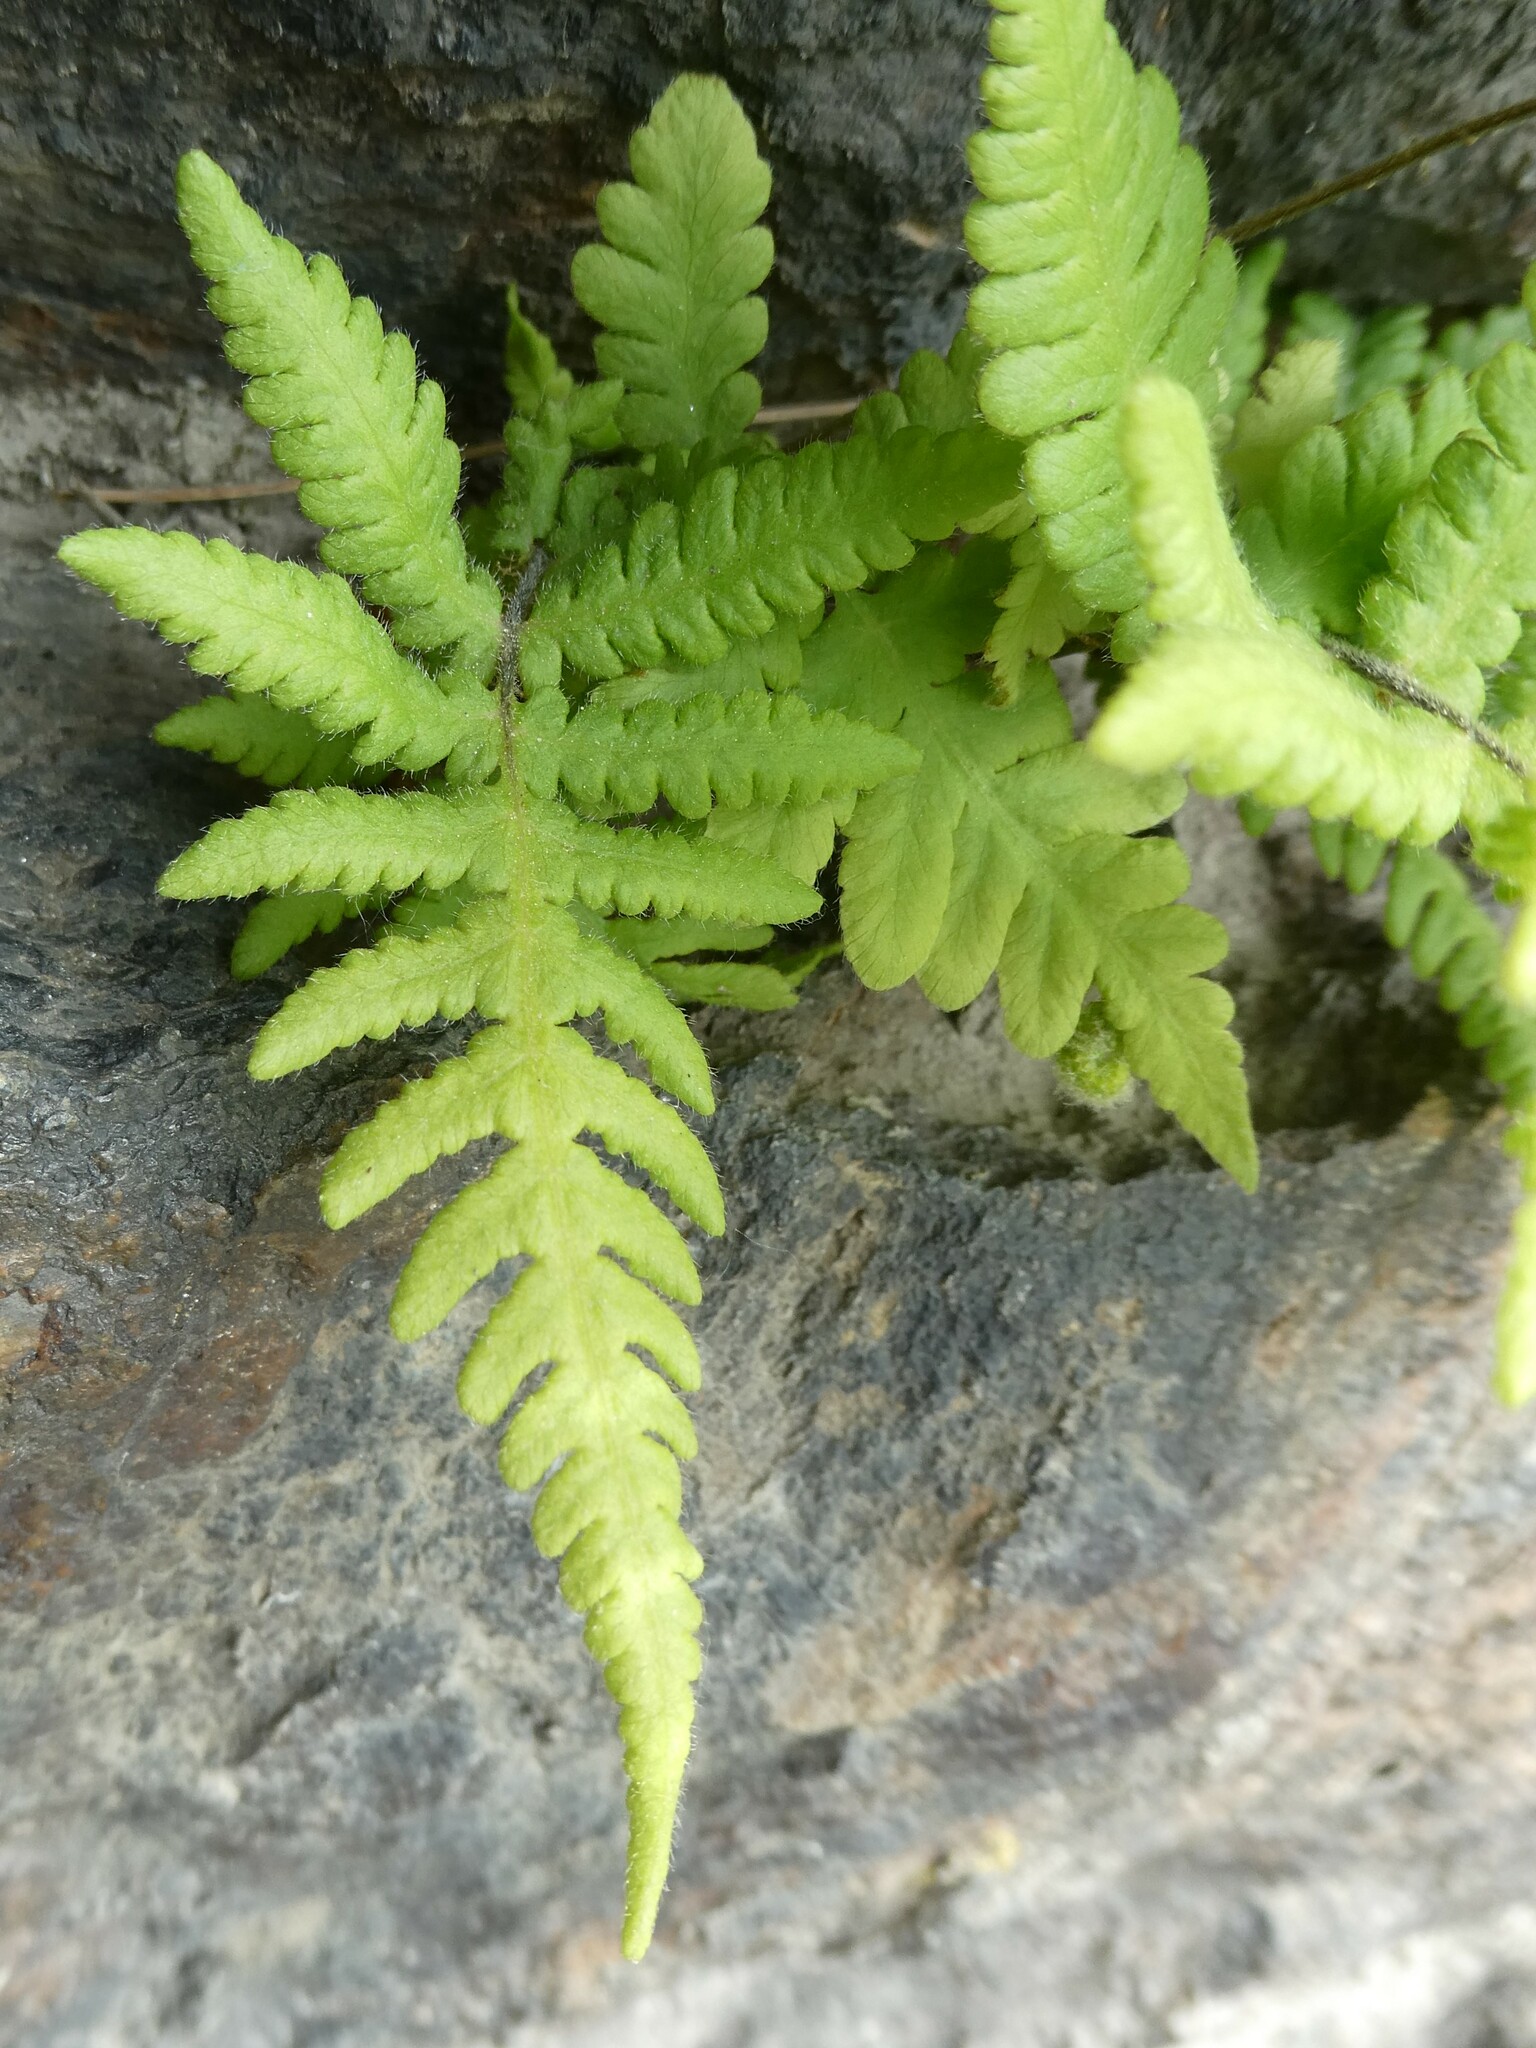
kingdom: Plantae
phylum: Tracheophyta
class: Polypodiopsida
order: Polypodiales
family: Thelypteridaceae
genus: Phegopteris
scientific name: Phegopteris connectilis
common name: Beech fern
